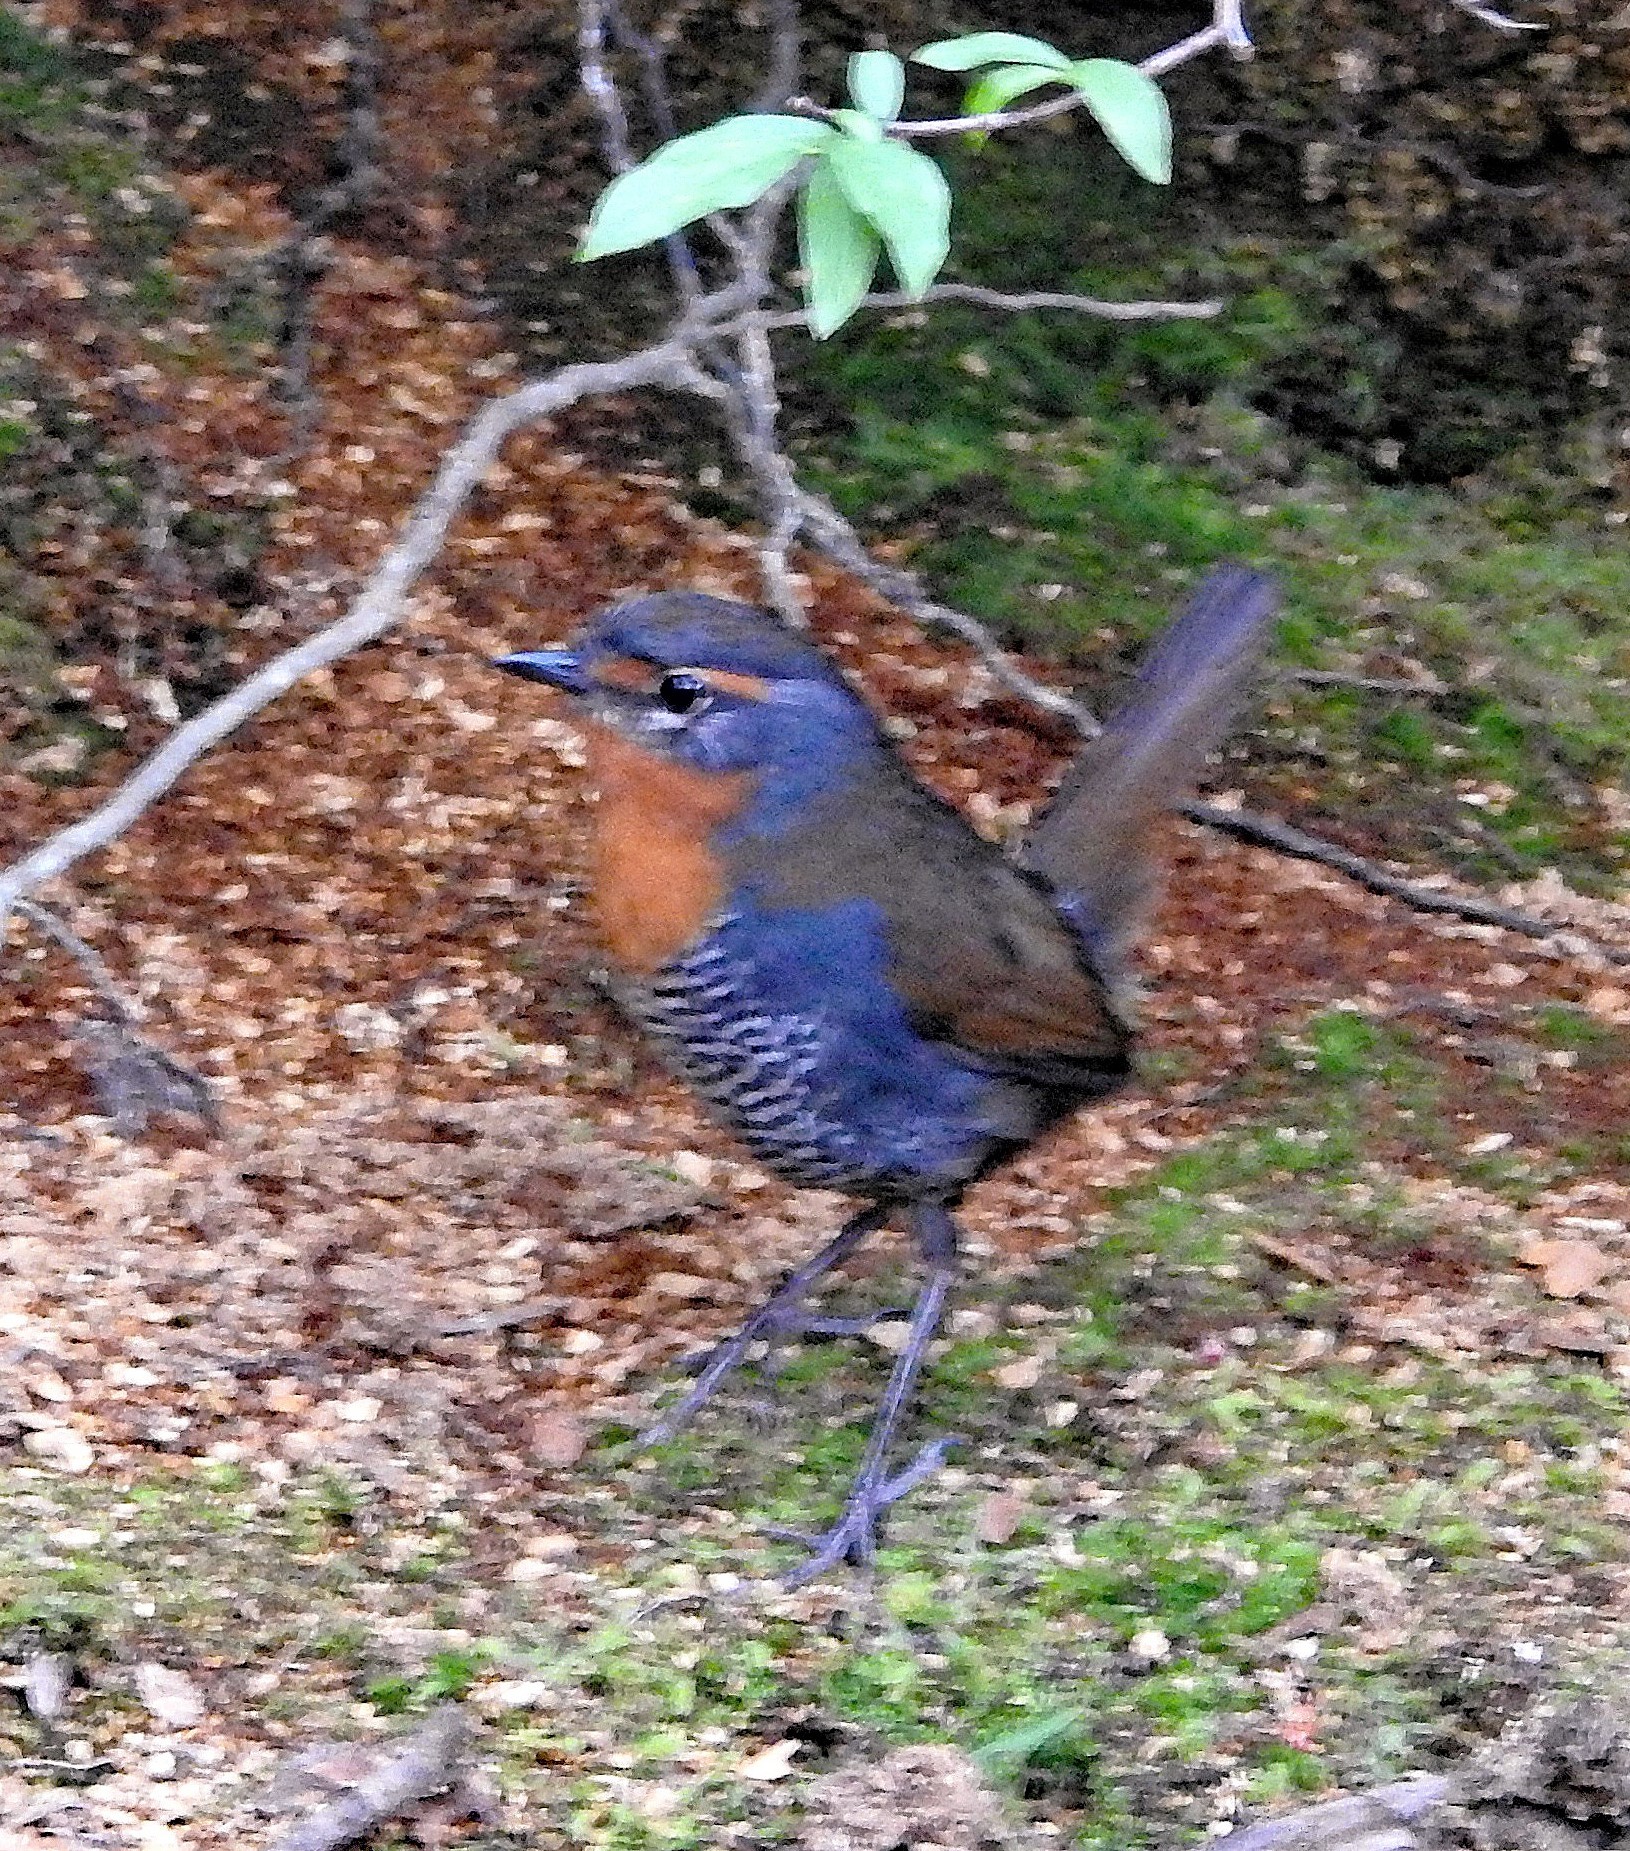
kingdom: Animalia
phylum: Chordata
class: Aves
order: Passeriformes
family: Rhinocryptidae
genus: Scelorchilus
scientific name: Scelorchilus rubecula
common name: Chucao tapaculo
